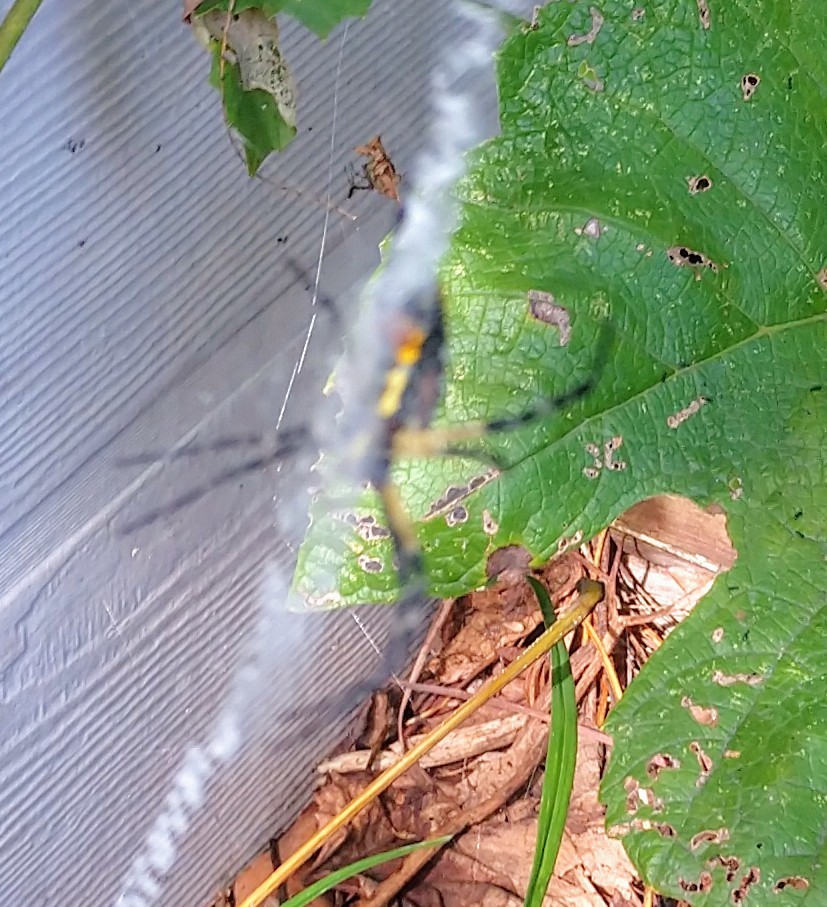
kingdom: Animalia
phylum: Arthropoda
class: Arachnida
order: Araneae
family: Araneidae
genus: Argiope
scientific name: Argiope aurantia
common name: Orb weavers
